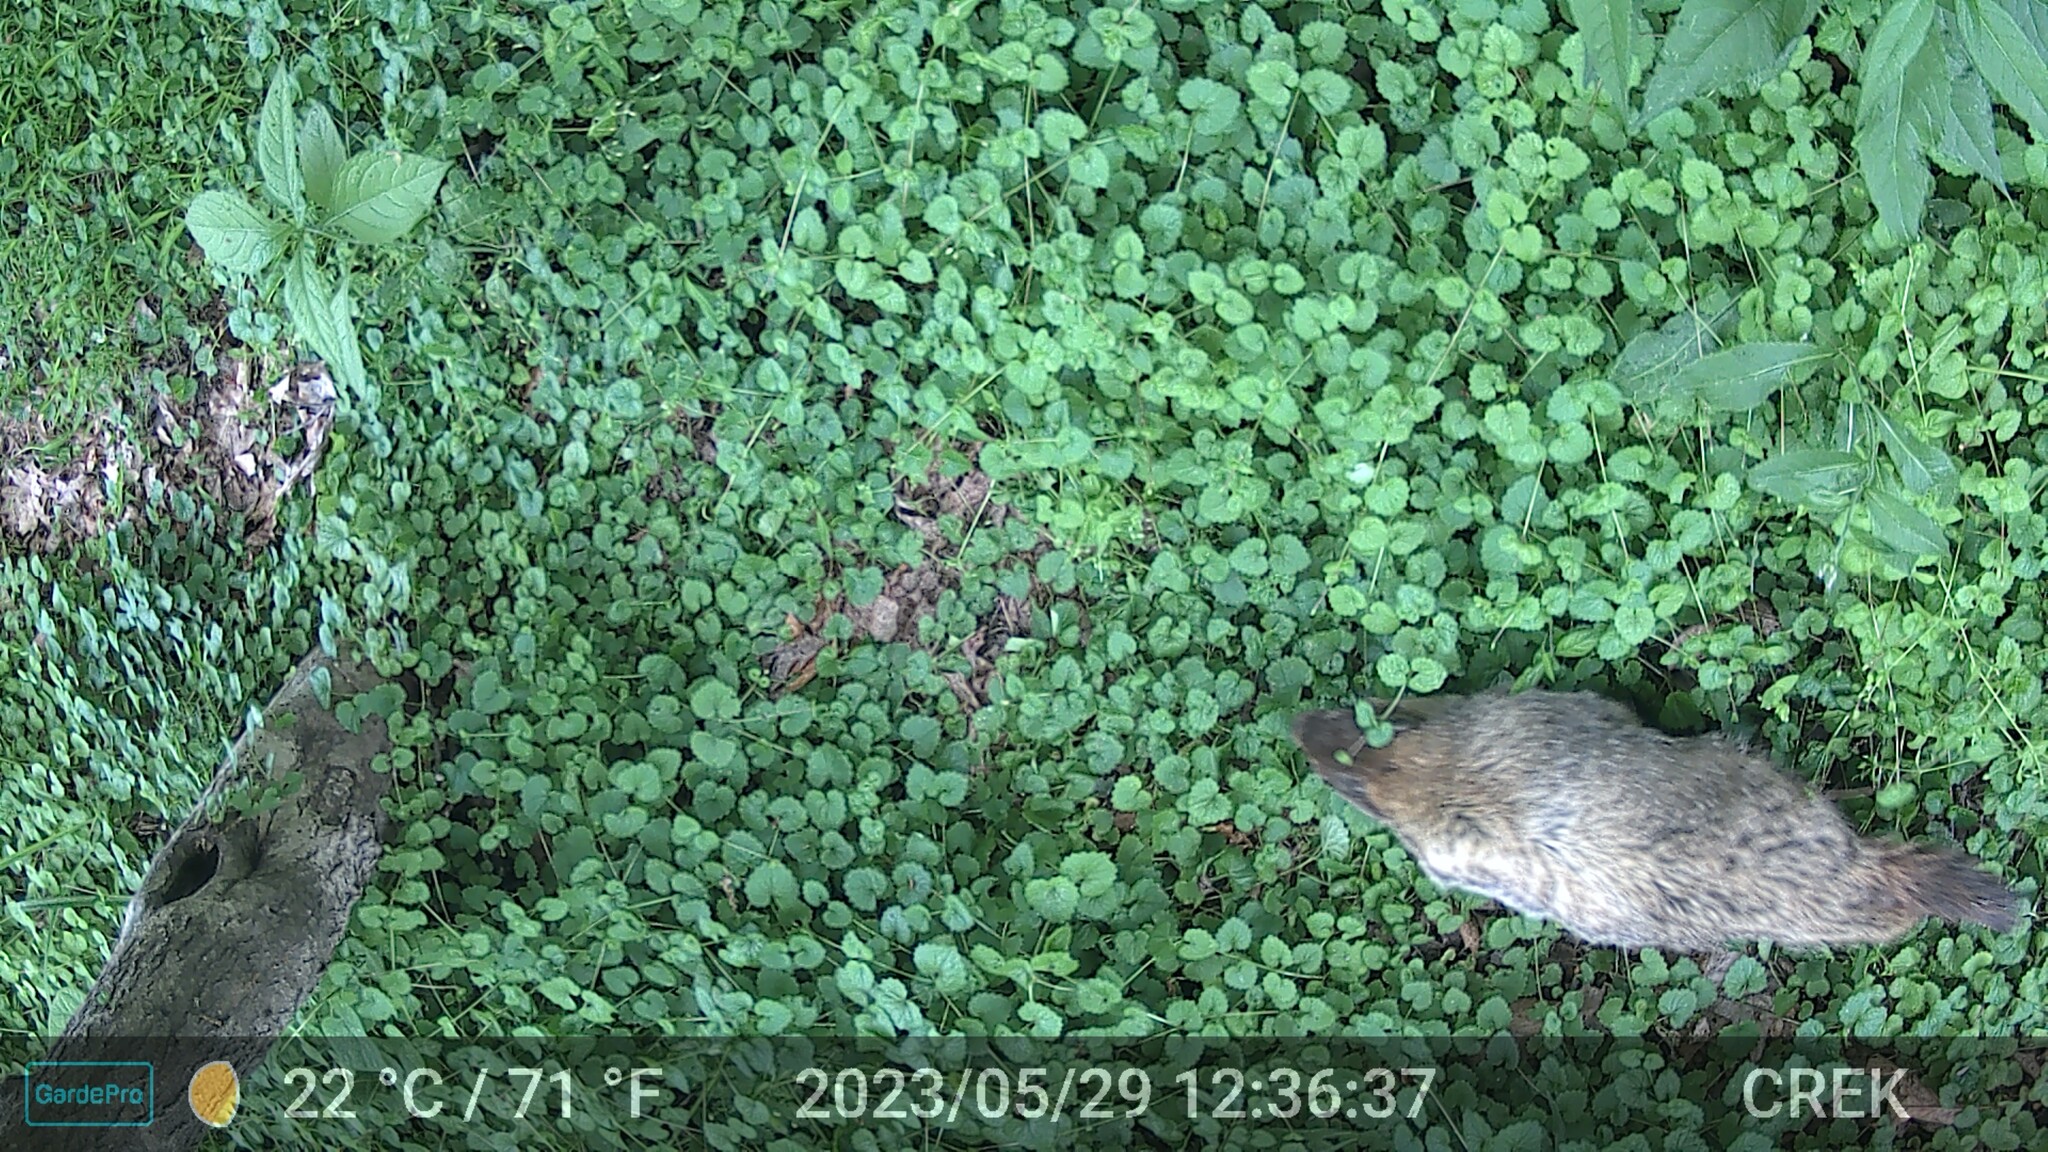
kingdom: Animalia
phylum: Chordata
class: Mammalia
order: Rodentia
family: Sciuridae
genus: Marmota
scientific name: Marmota monax
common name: Groundhog
